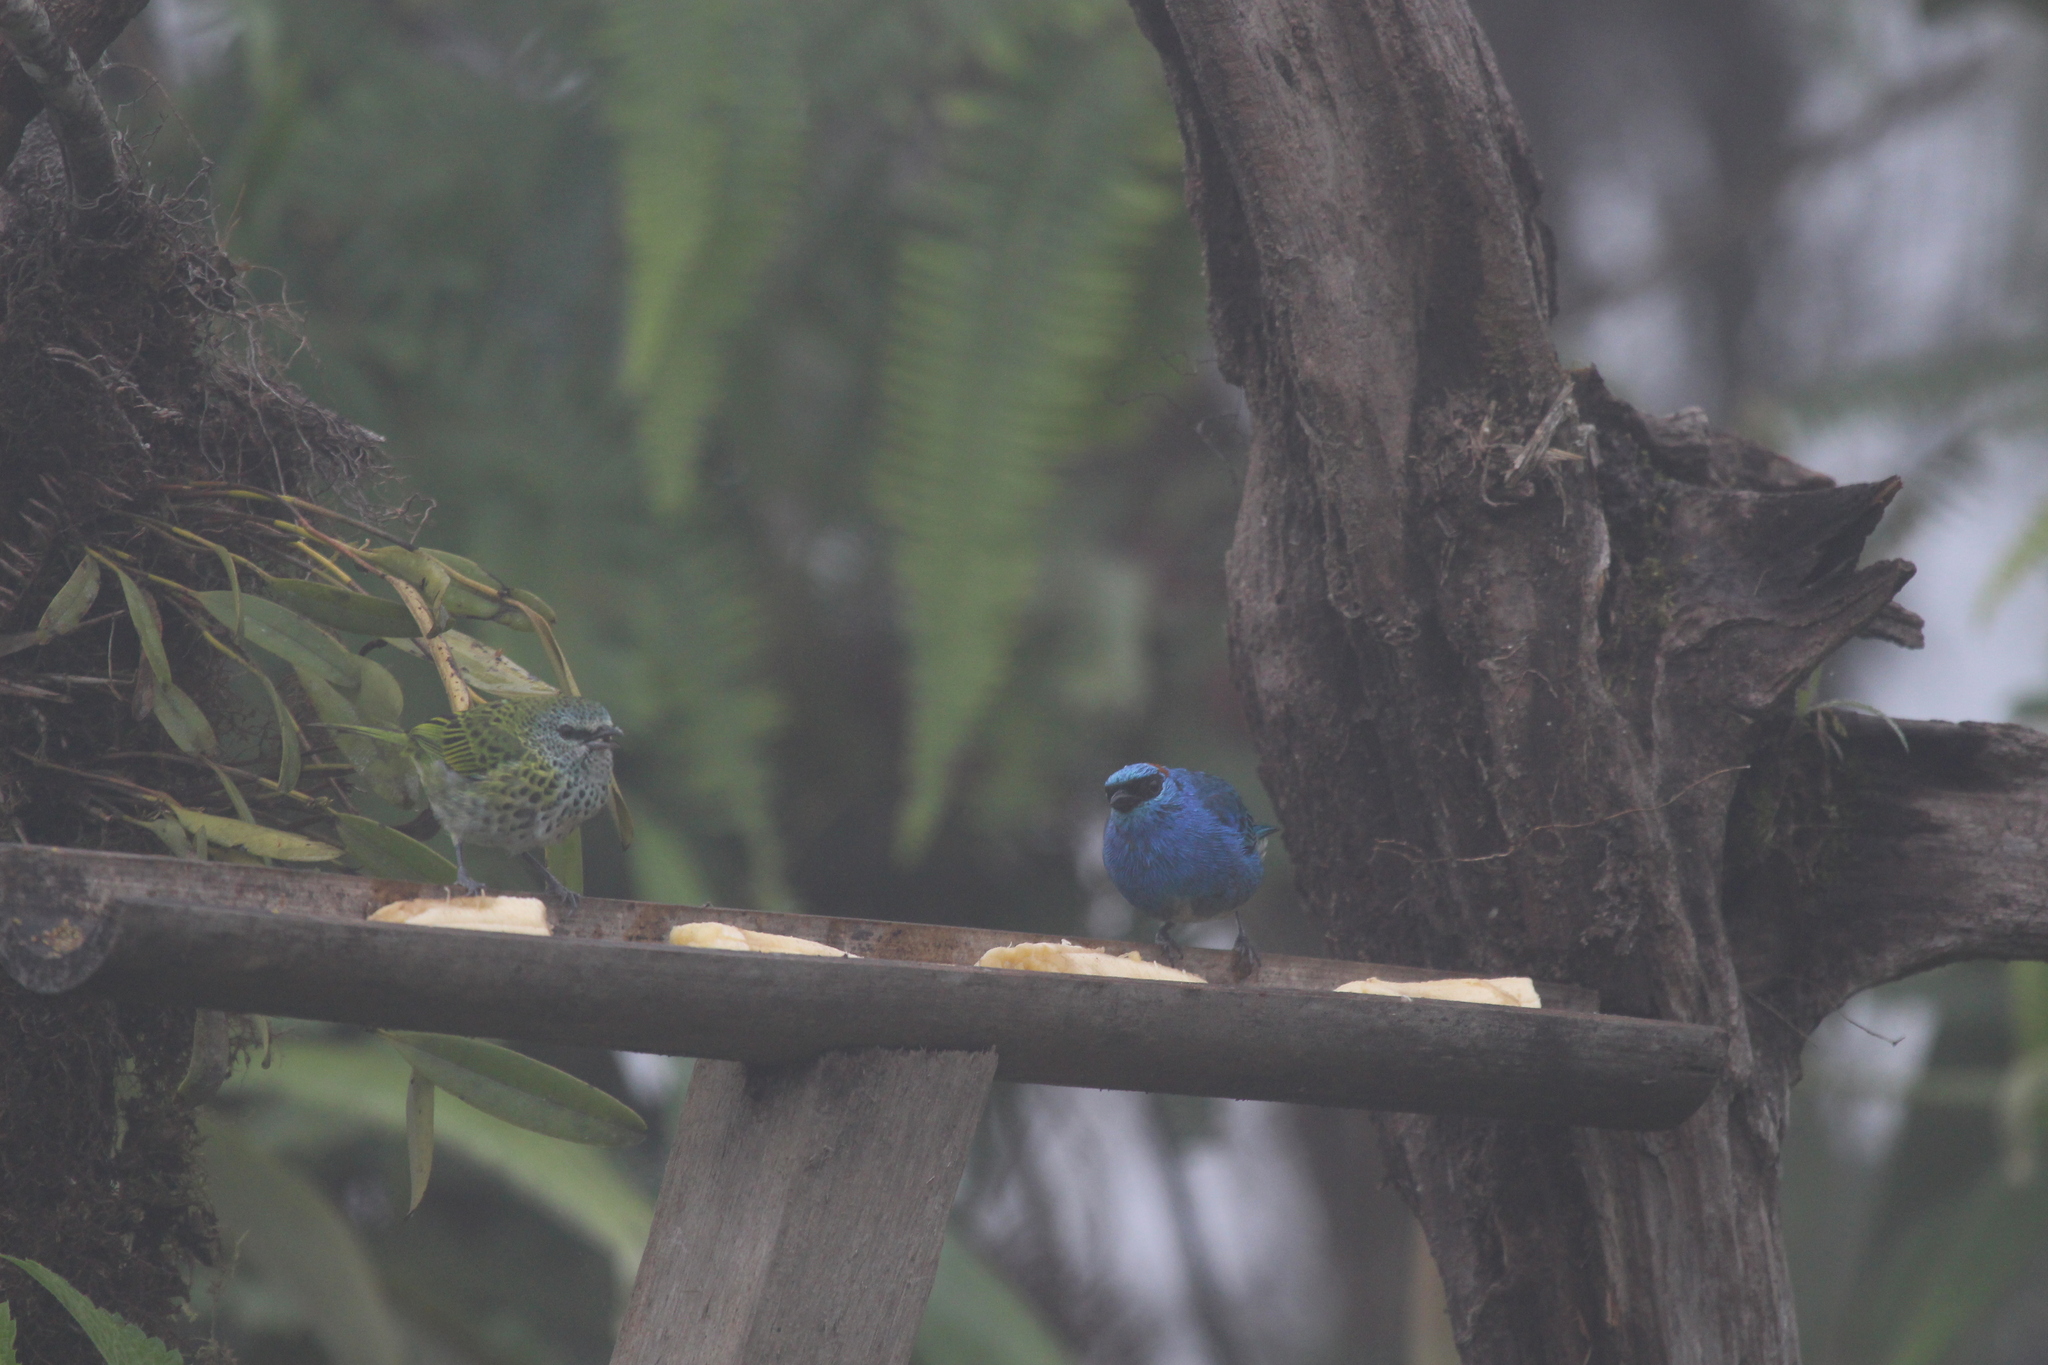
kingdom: Animalia
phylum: Chordata
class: Aves
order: Passeriformes
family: Thraupidae
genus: Chalcothraupis
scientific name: Chalcothraupis ruficervix
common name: Golden-naped tanager
